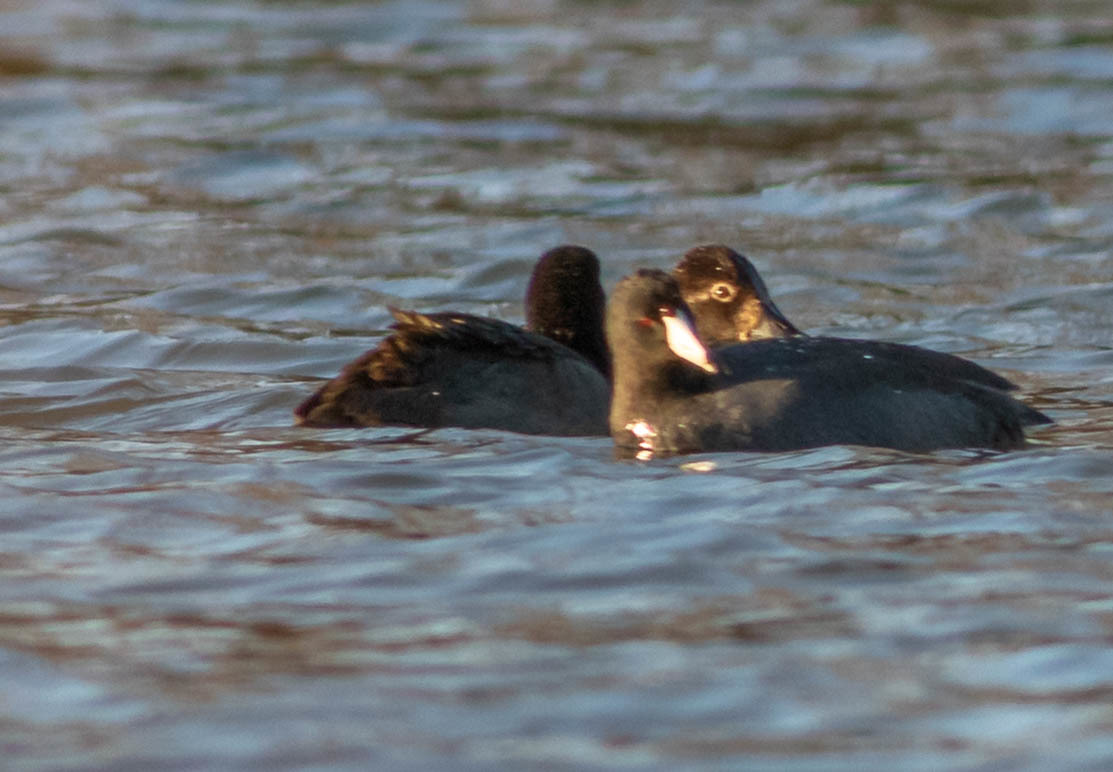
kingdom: Animalia
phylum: Chordata
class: Aves
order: Gruiformes
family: Rallidae
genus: Fulica
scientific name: Fulica americana
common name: American coot
